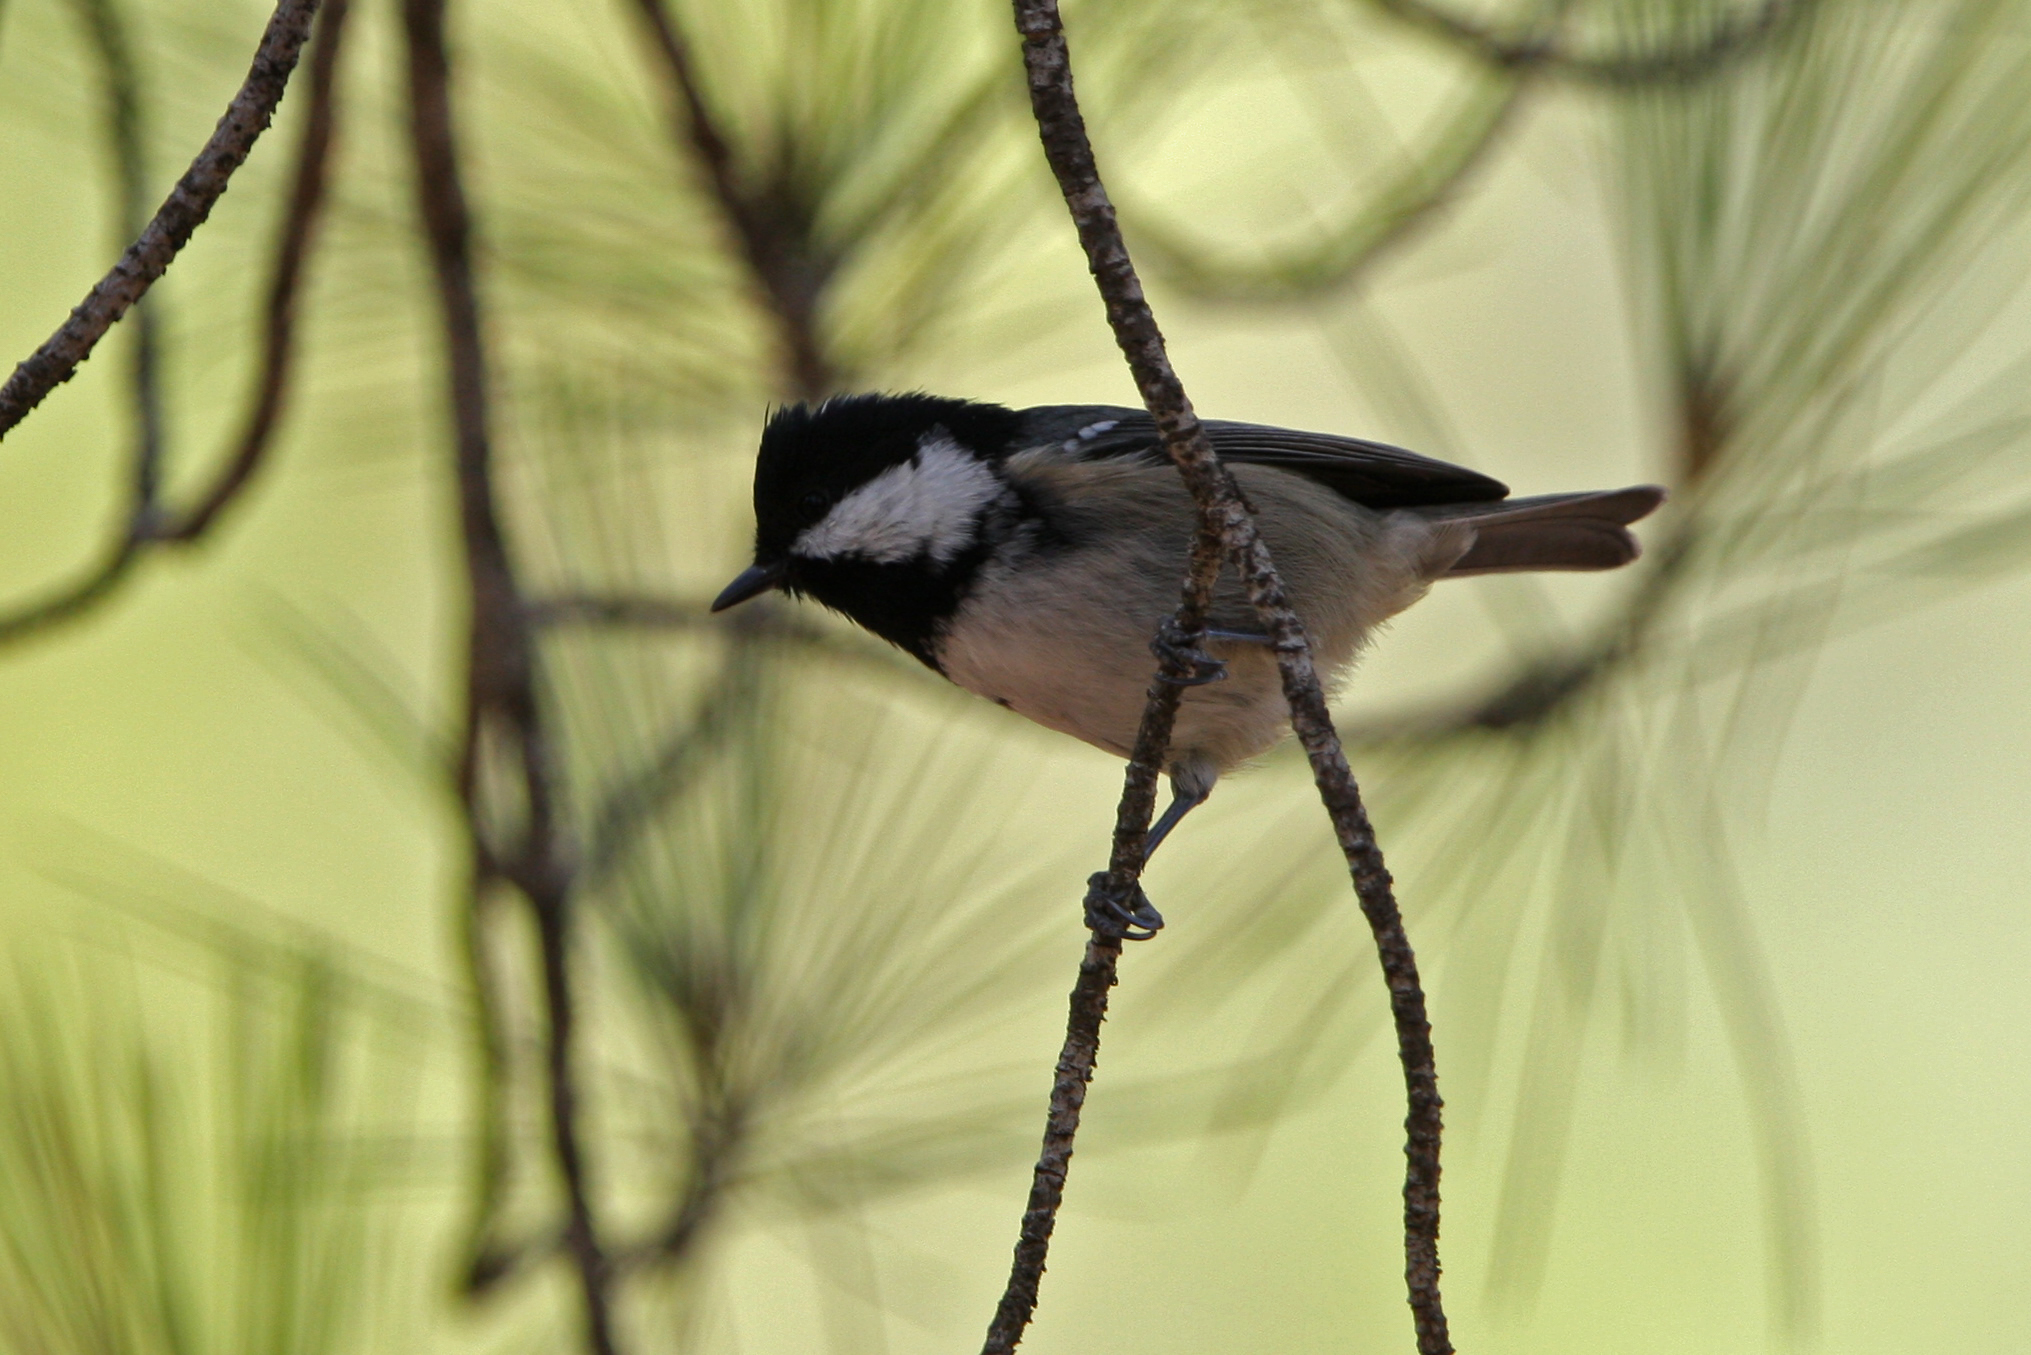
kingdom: Animalia
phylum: Chordata
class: Aves
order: Passeriformes
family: Paridae
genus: Periparus
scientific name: Periparus ater
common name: Coal tit
